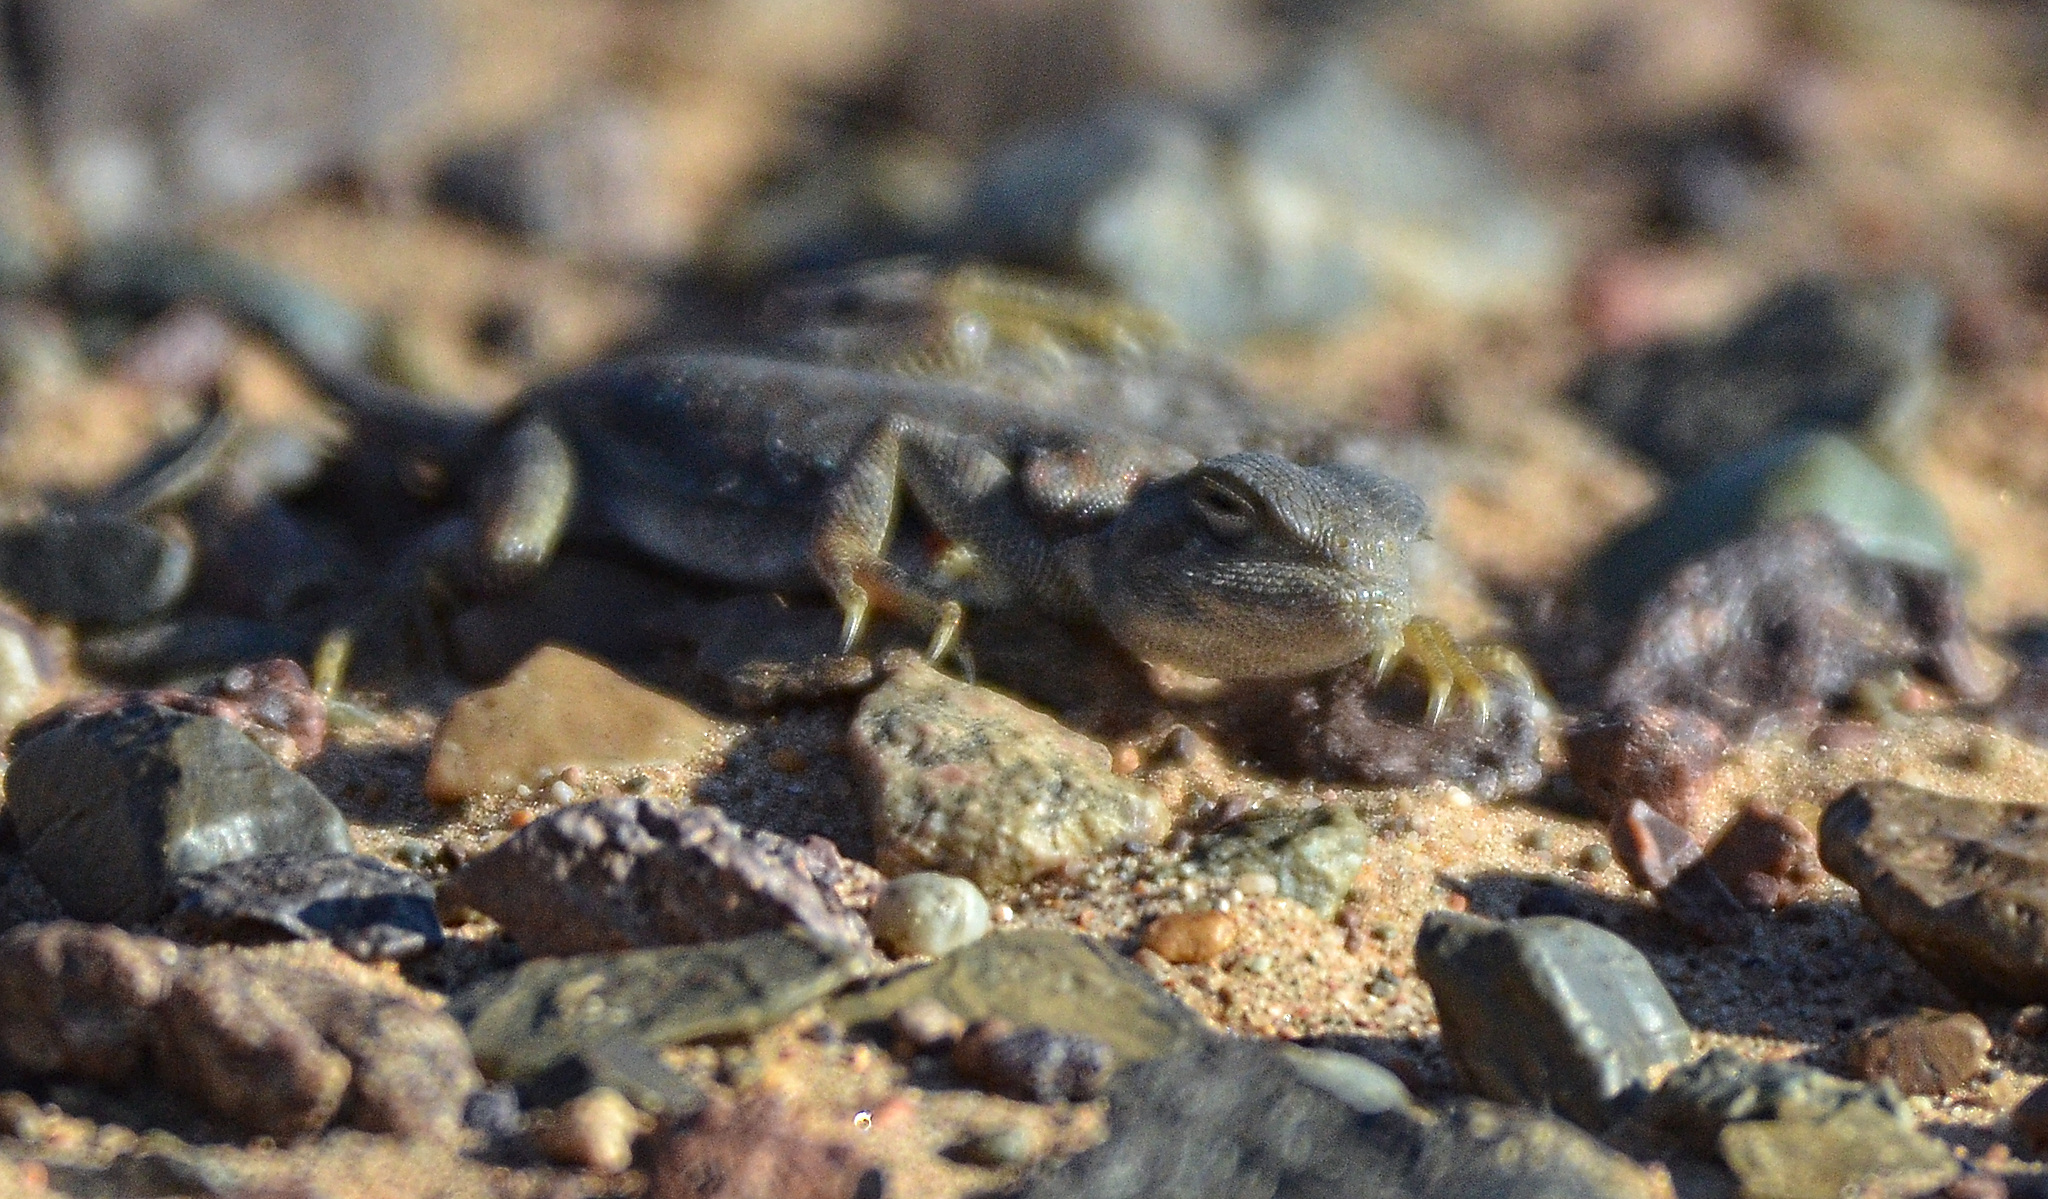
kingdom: Animalia
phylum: Chordata
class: Squamata
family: Agamidae
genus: Phrynocephalus
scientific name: Phrynocephalus versicolor
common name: Tuvan toad-headed agama
